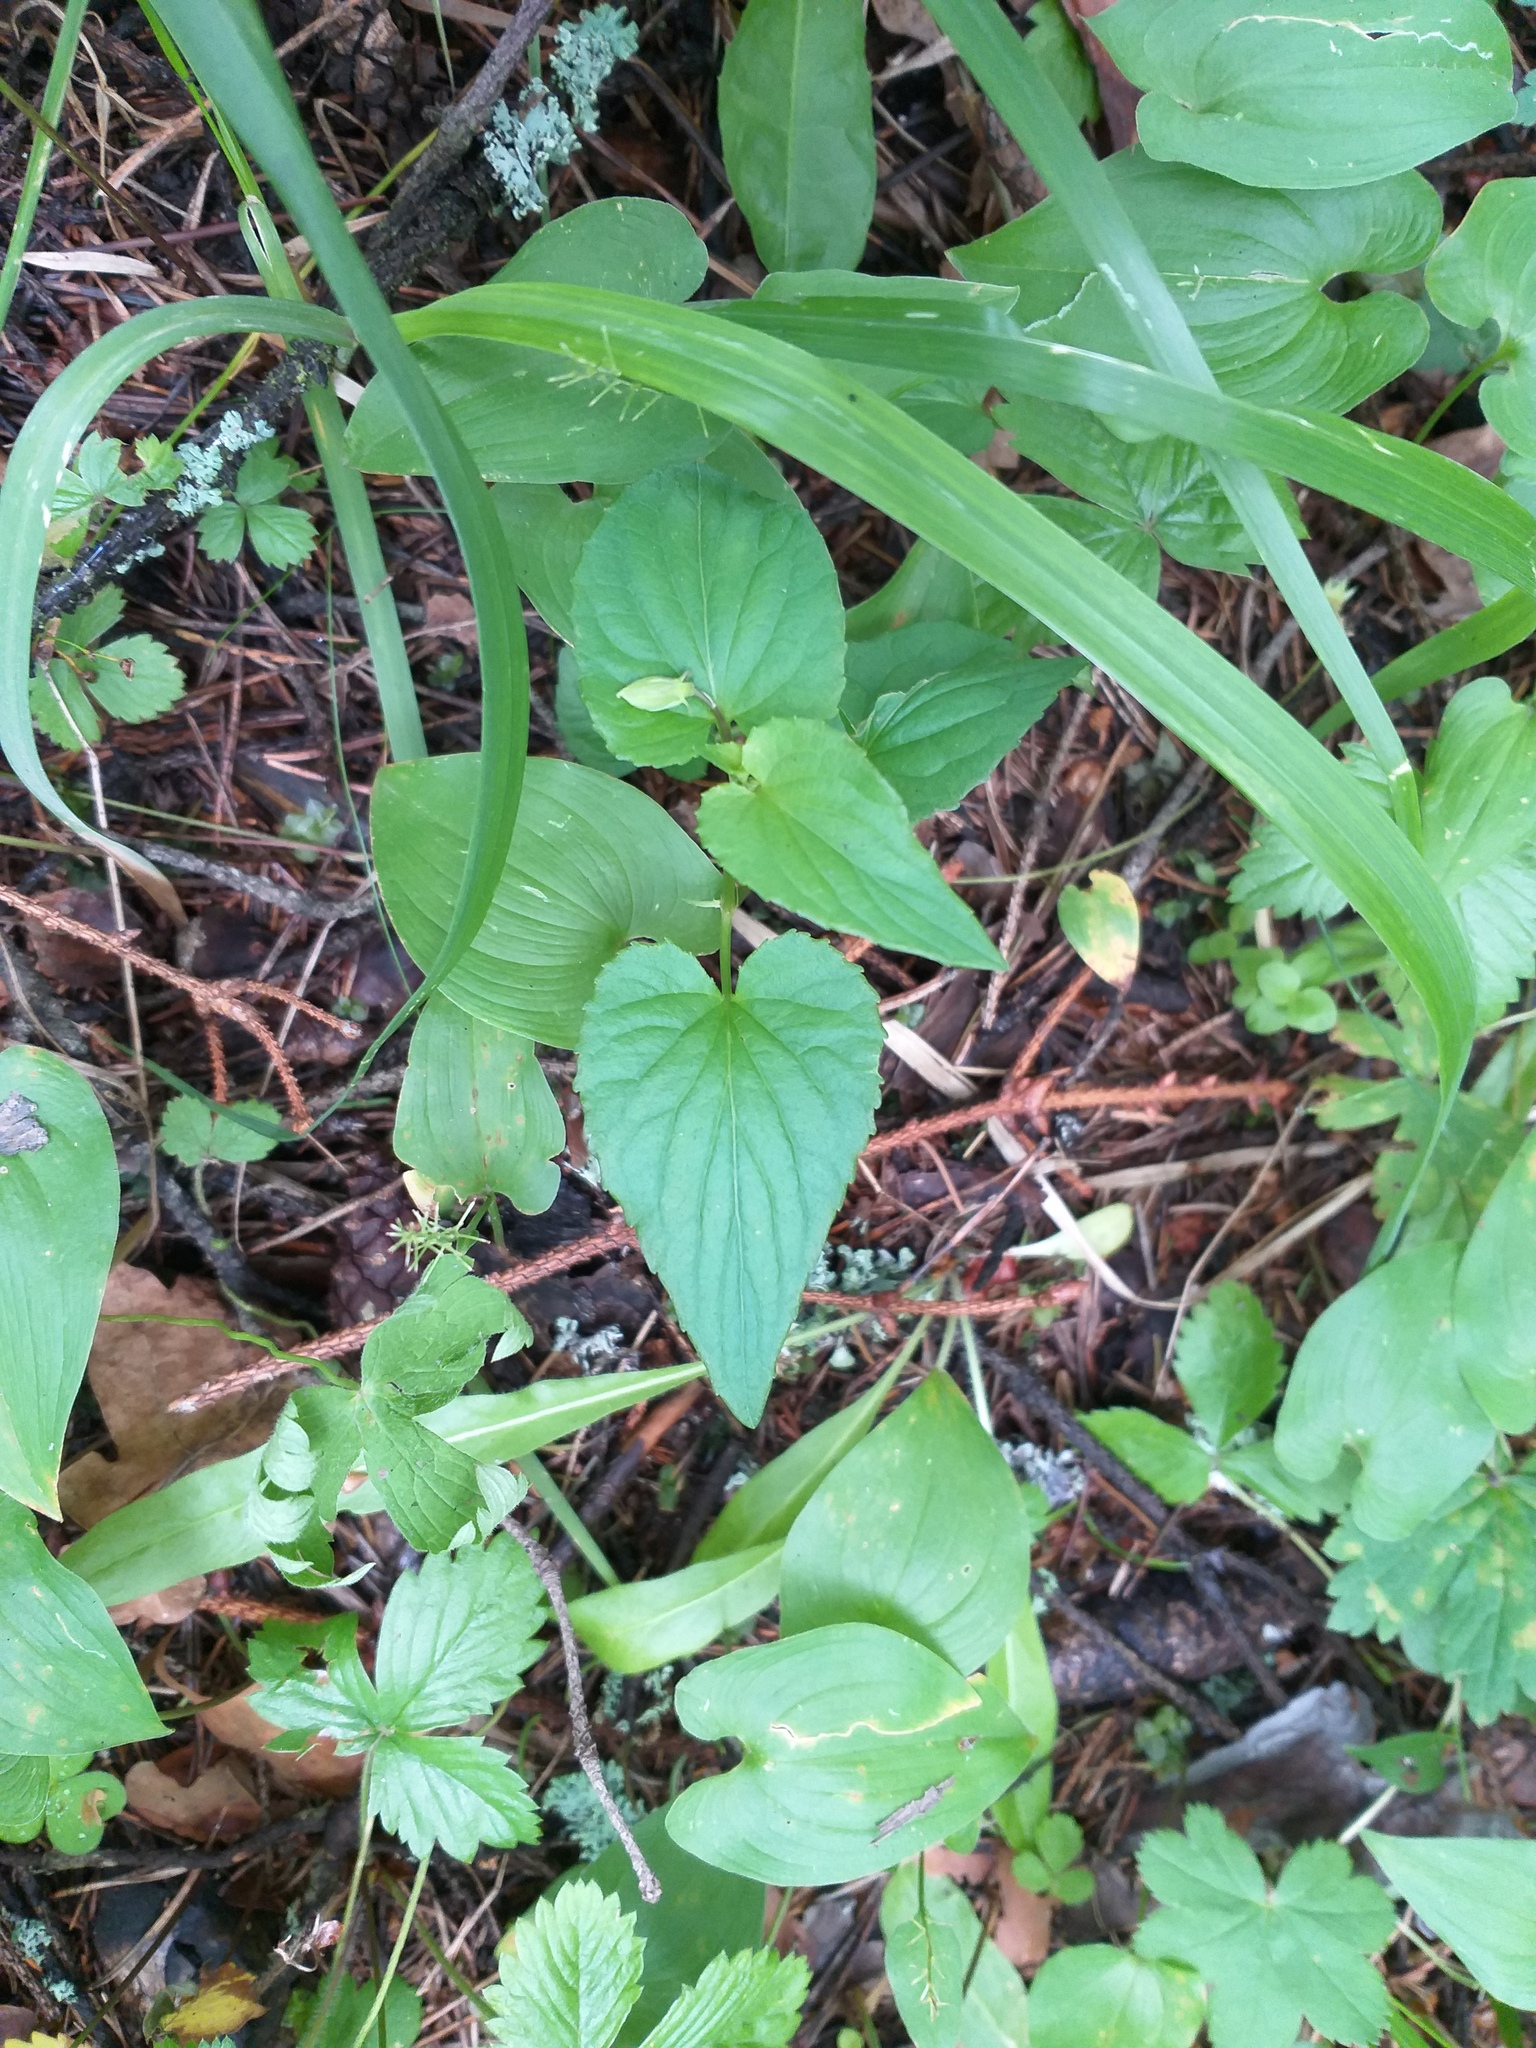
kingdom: Plantae
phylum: Tracheophyta
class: Magnoliopsida
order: Malpighiales
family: Violaceae
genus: Viola
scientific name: Viola
